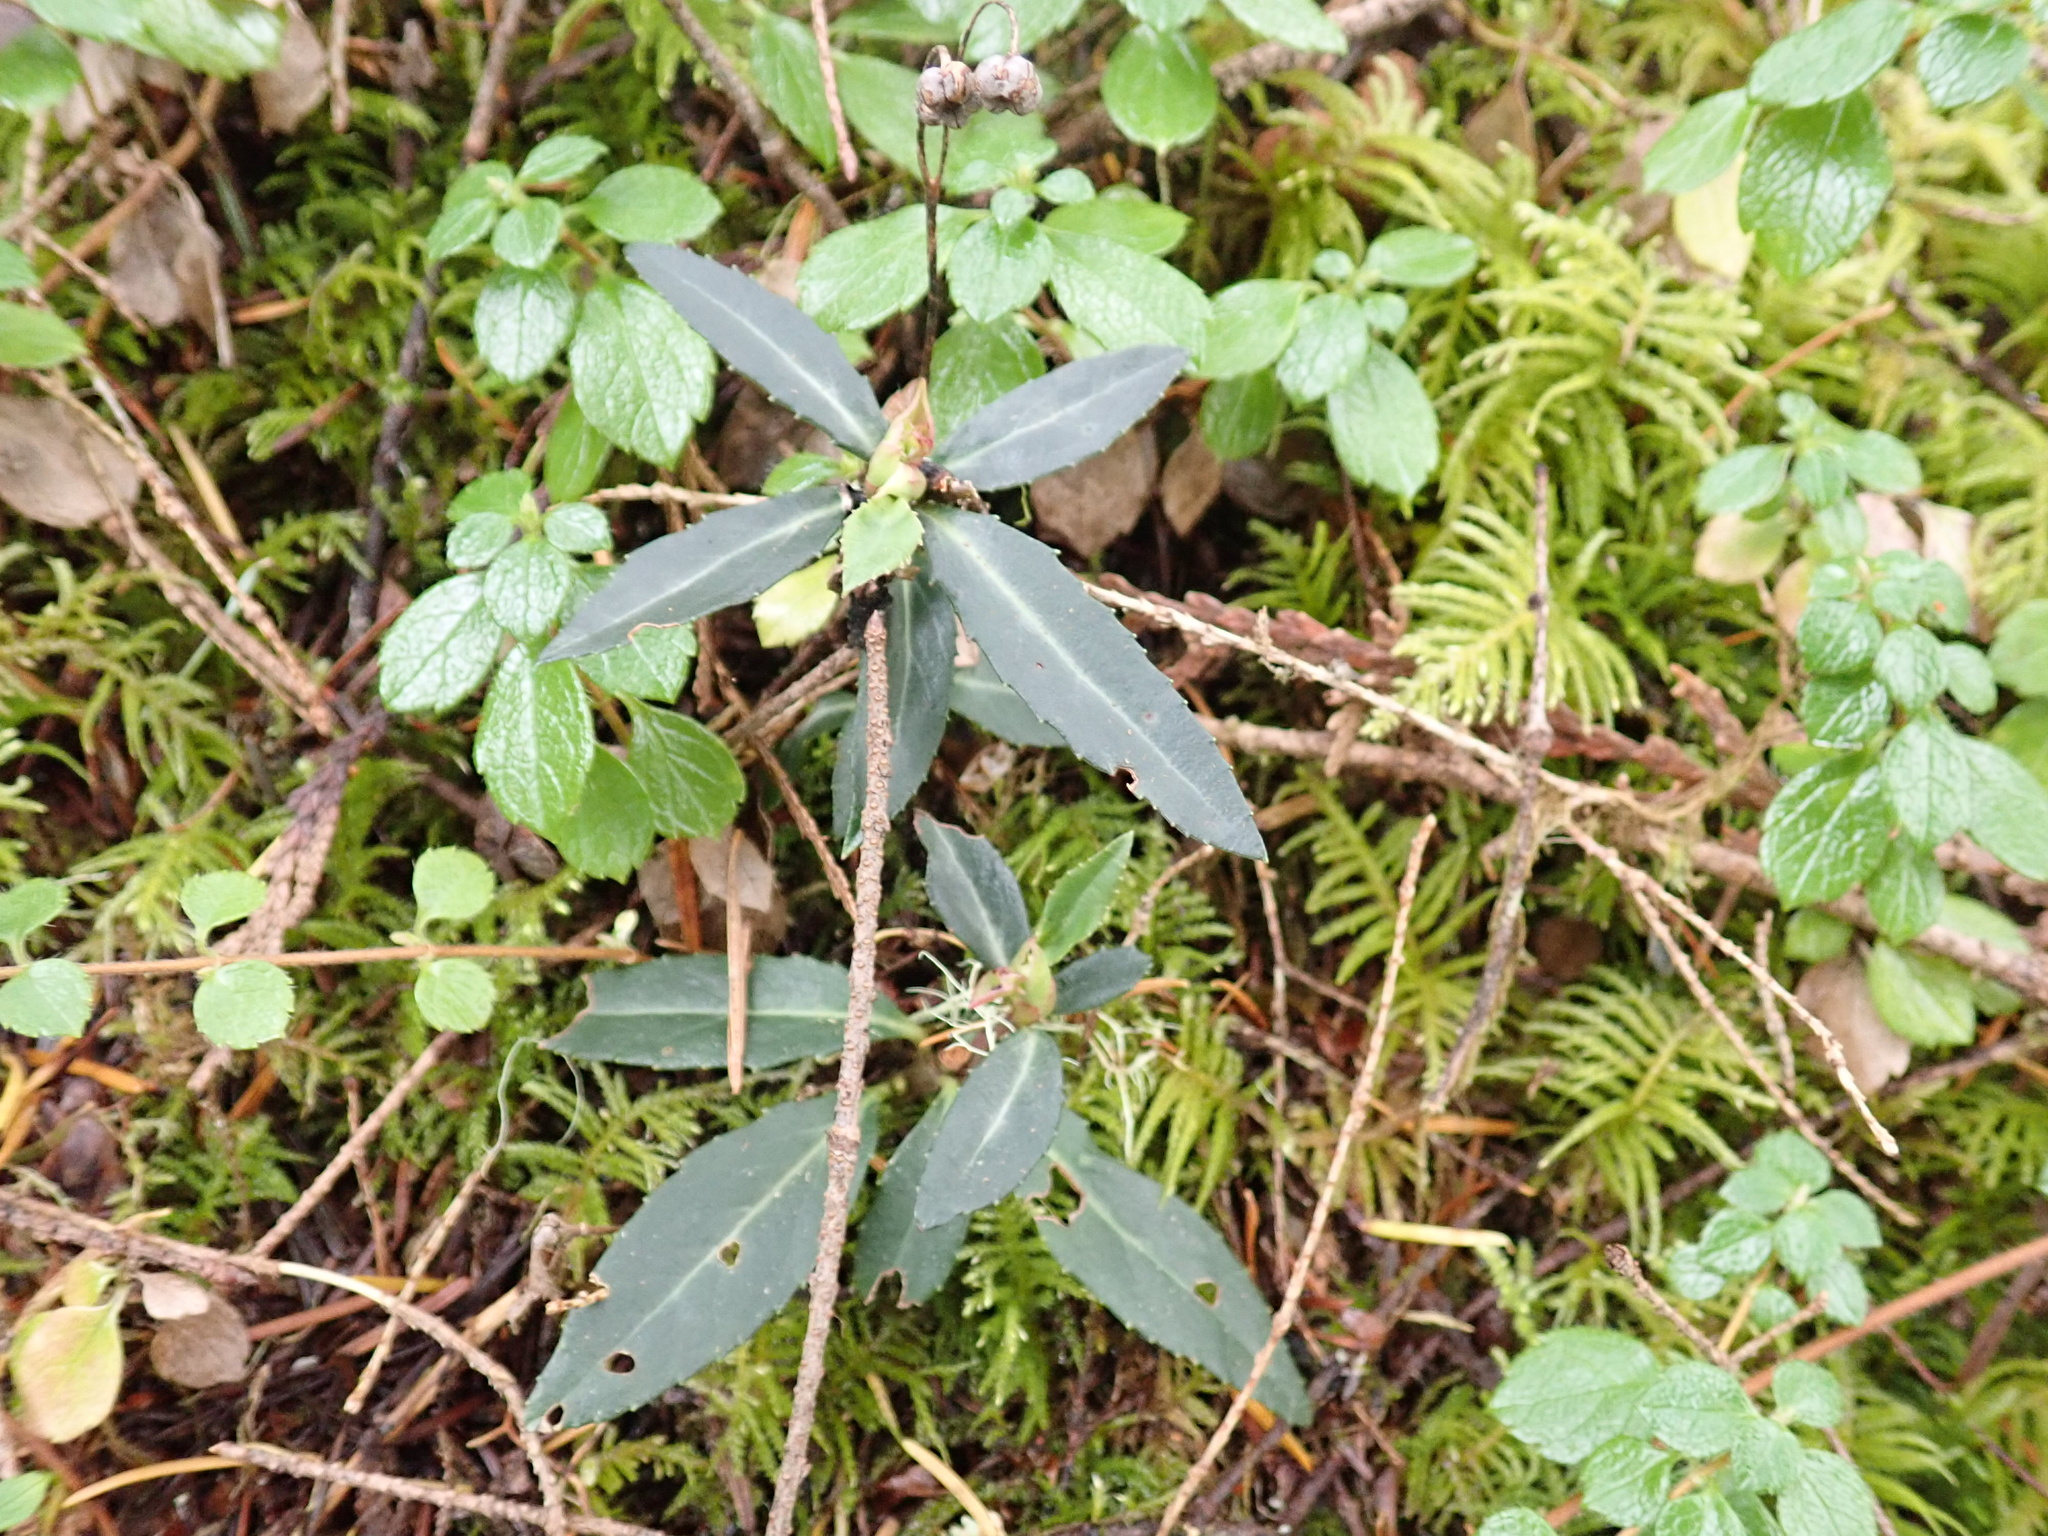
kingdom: Plantae
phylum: Tracheophyta
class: Magnoliopsida
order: Ericales
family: Ericaceae
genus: Chimaphila
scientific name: Chimaphila menziesii
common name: Menzies' pipsissewa
